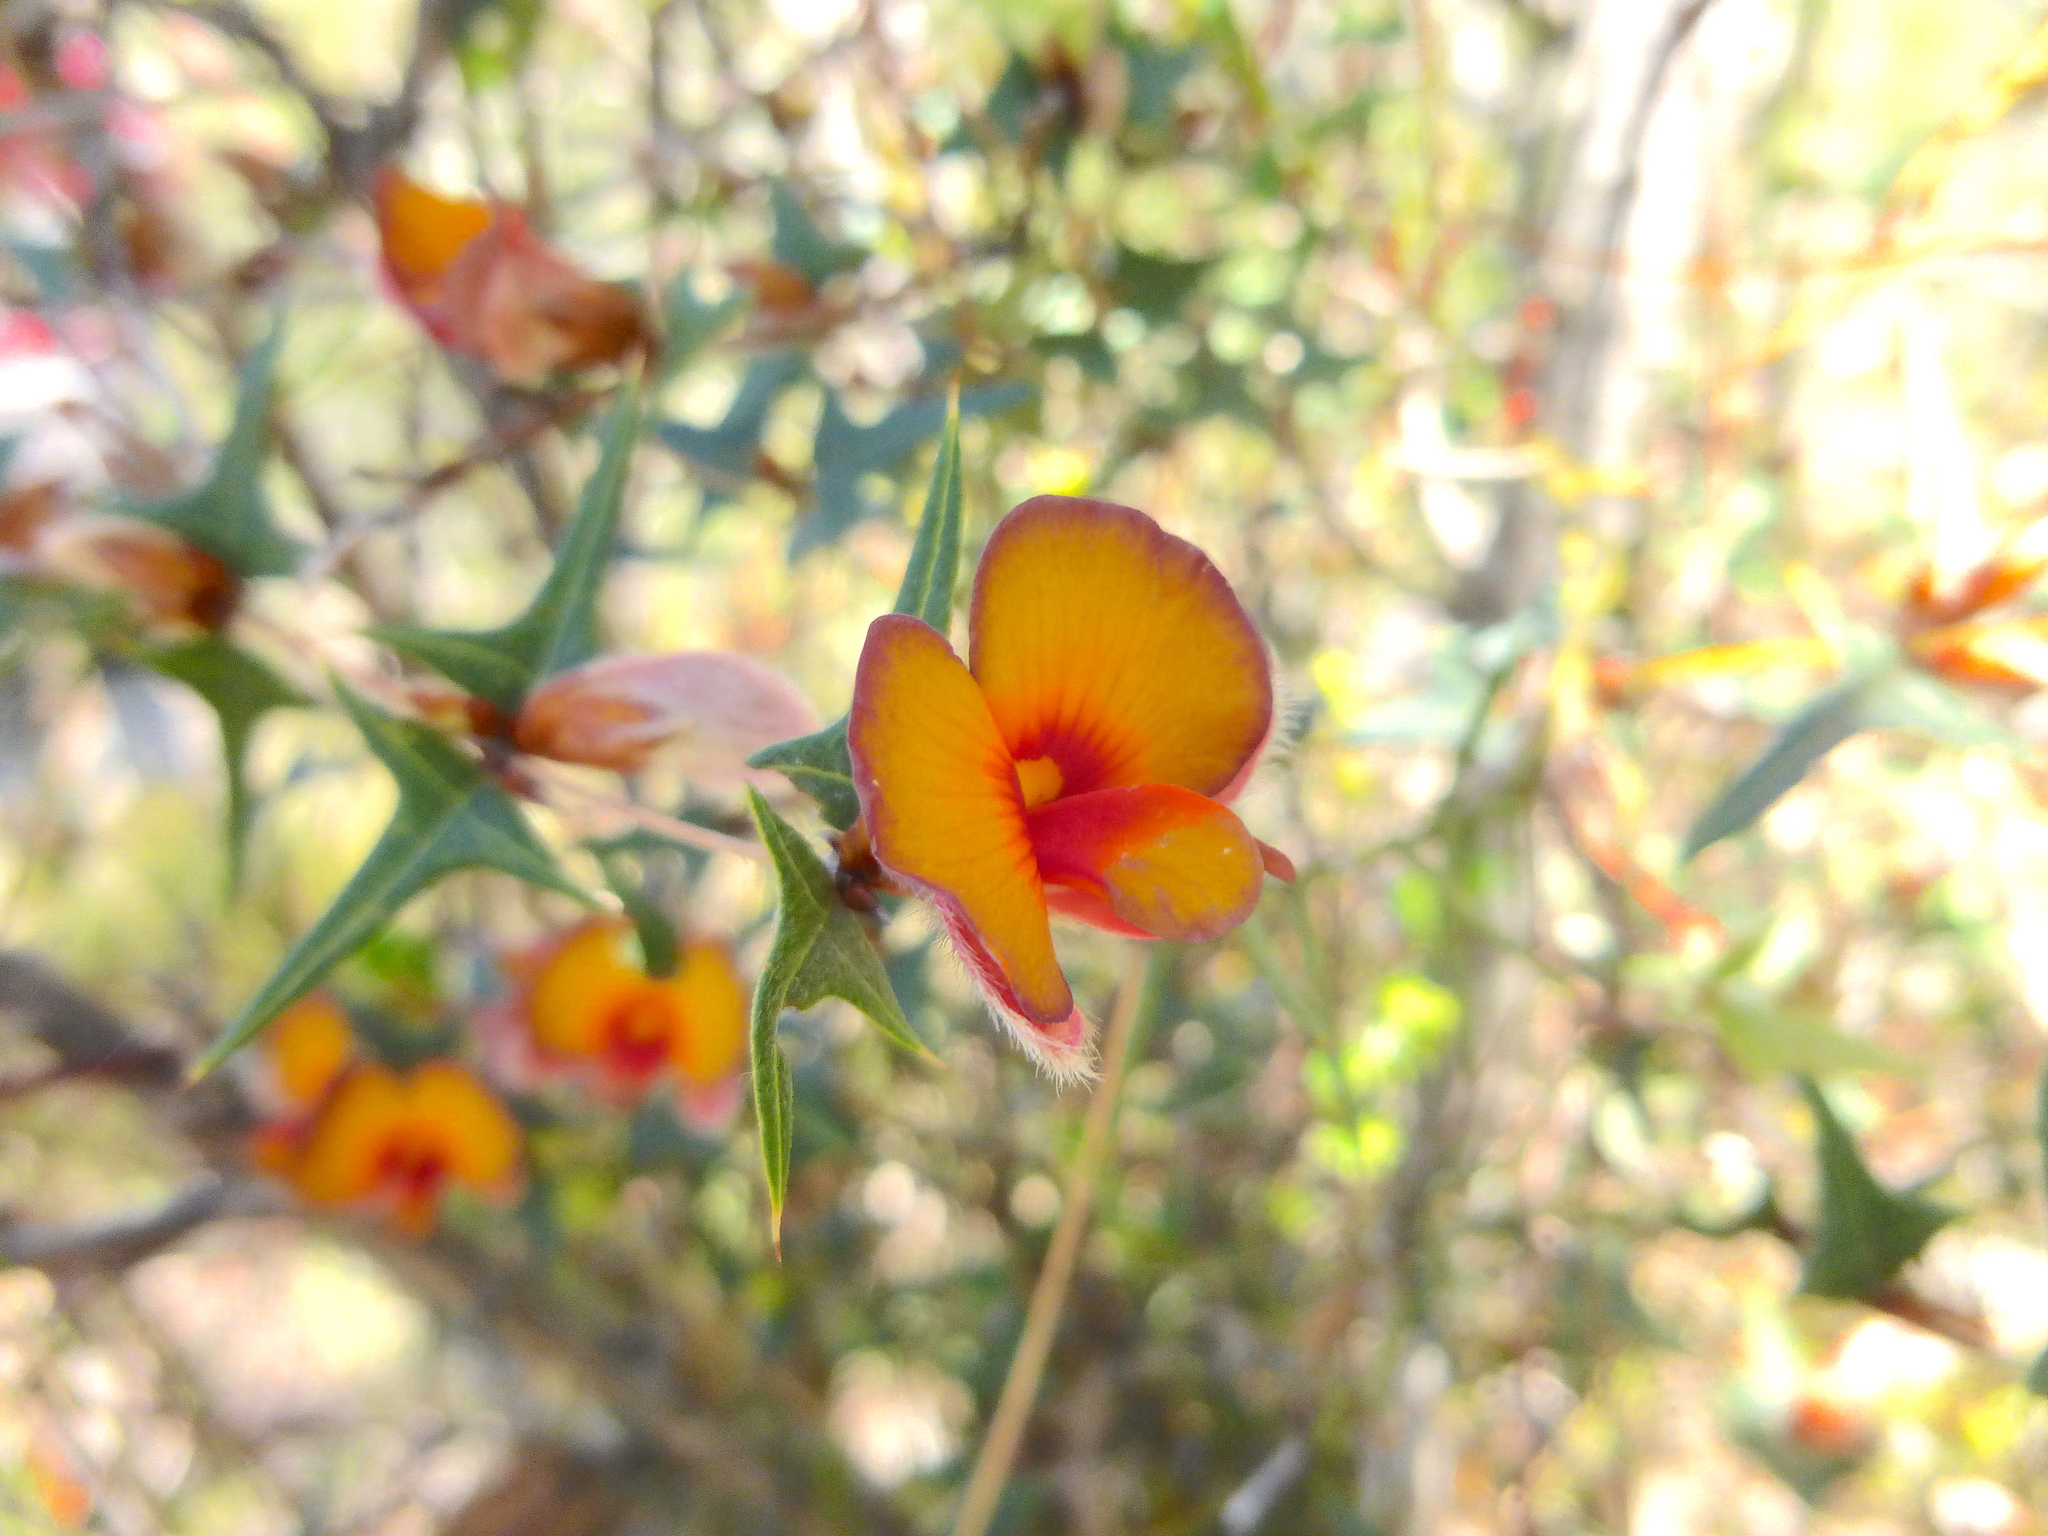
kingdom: Plantae
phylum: Tracheophyta
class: Magnoliopsida
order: Fabales
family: Fabaceae
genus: Platylobium
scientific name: Platylobium obtusangulum
